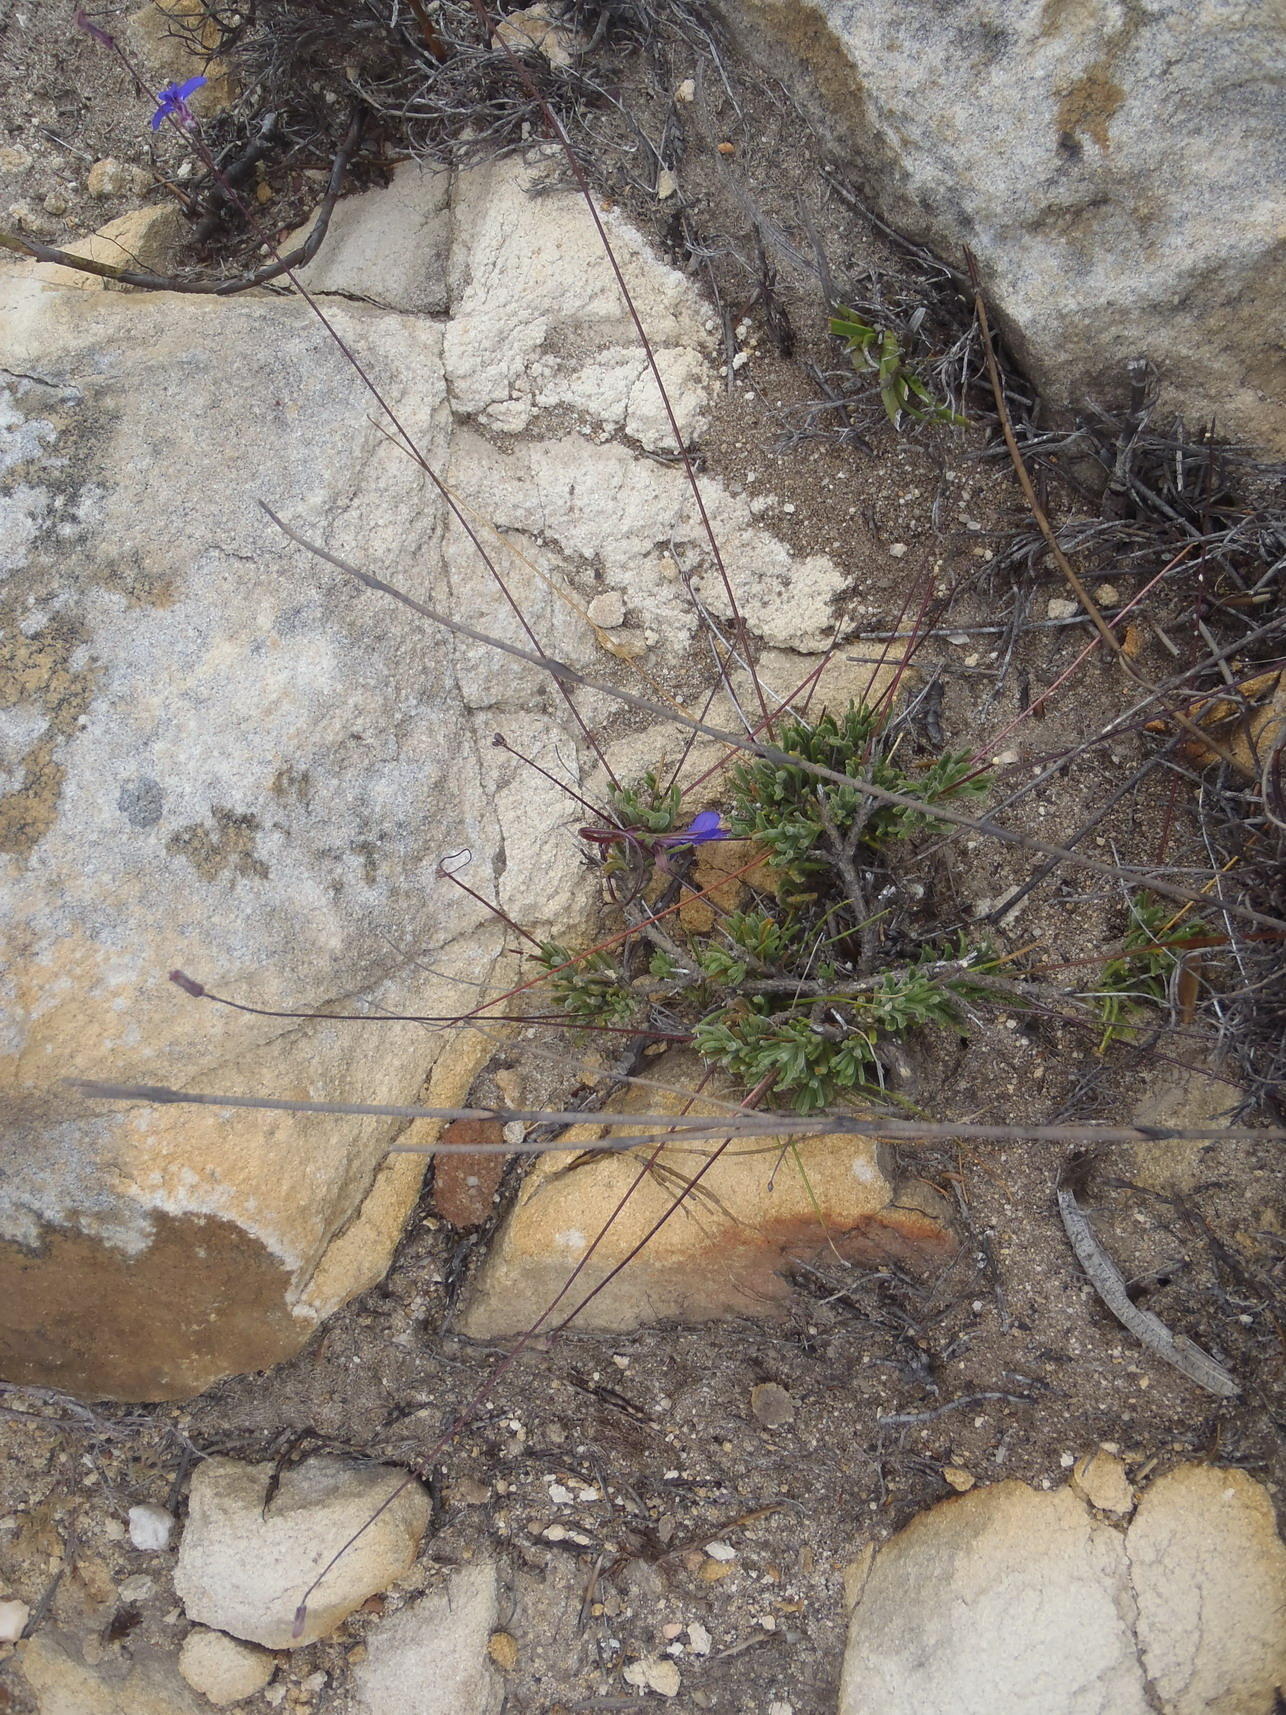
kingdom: Plantae
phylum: Tracheophyta
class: Magnoliopsida
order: Asterales
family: Campanulaceae
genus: Lobelia
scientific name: Lobelia tomentosa
